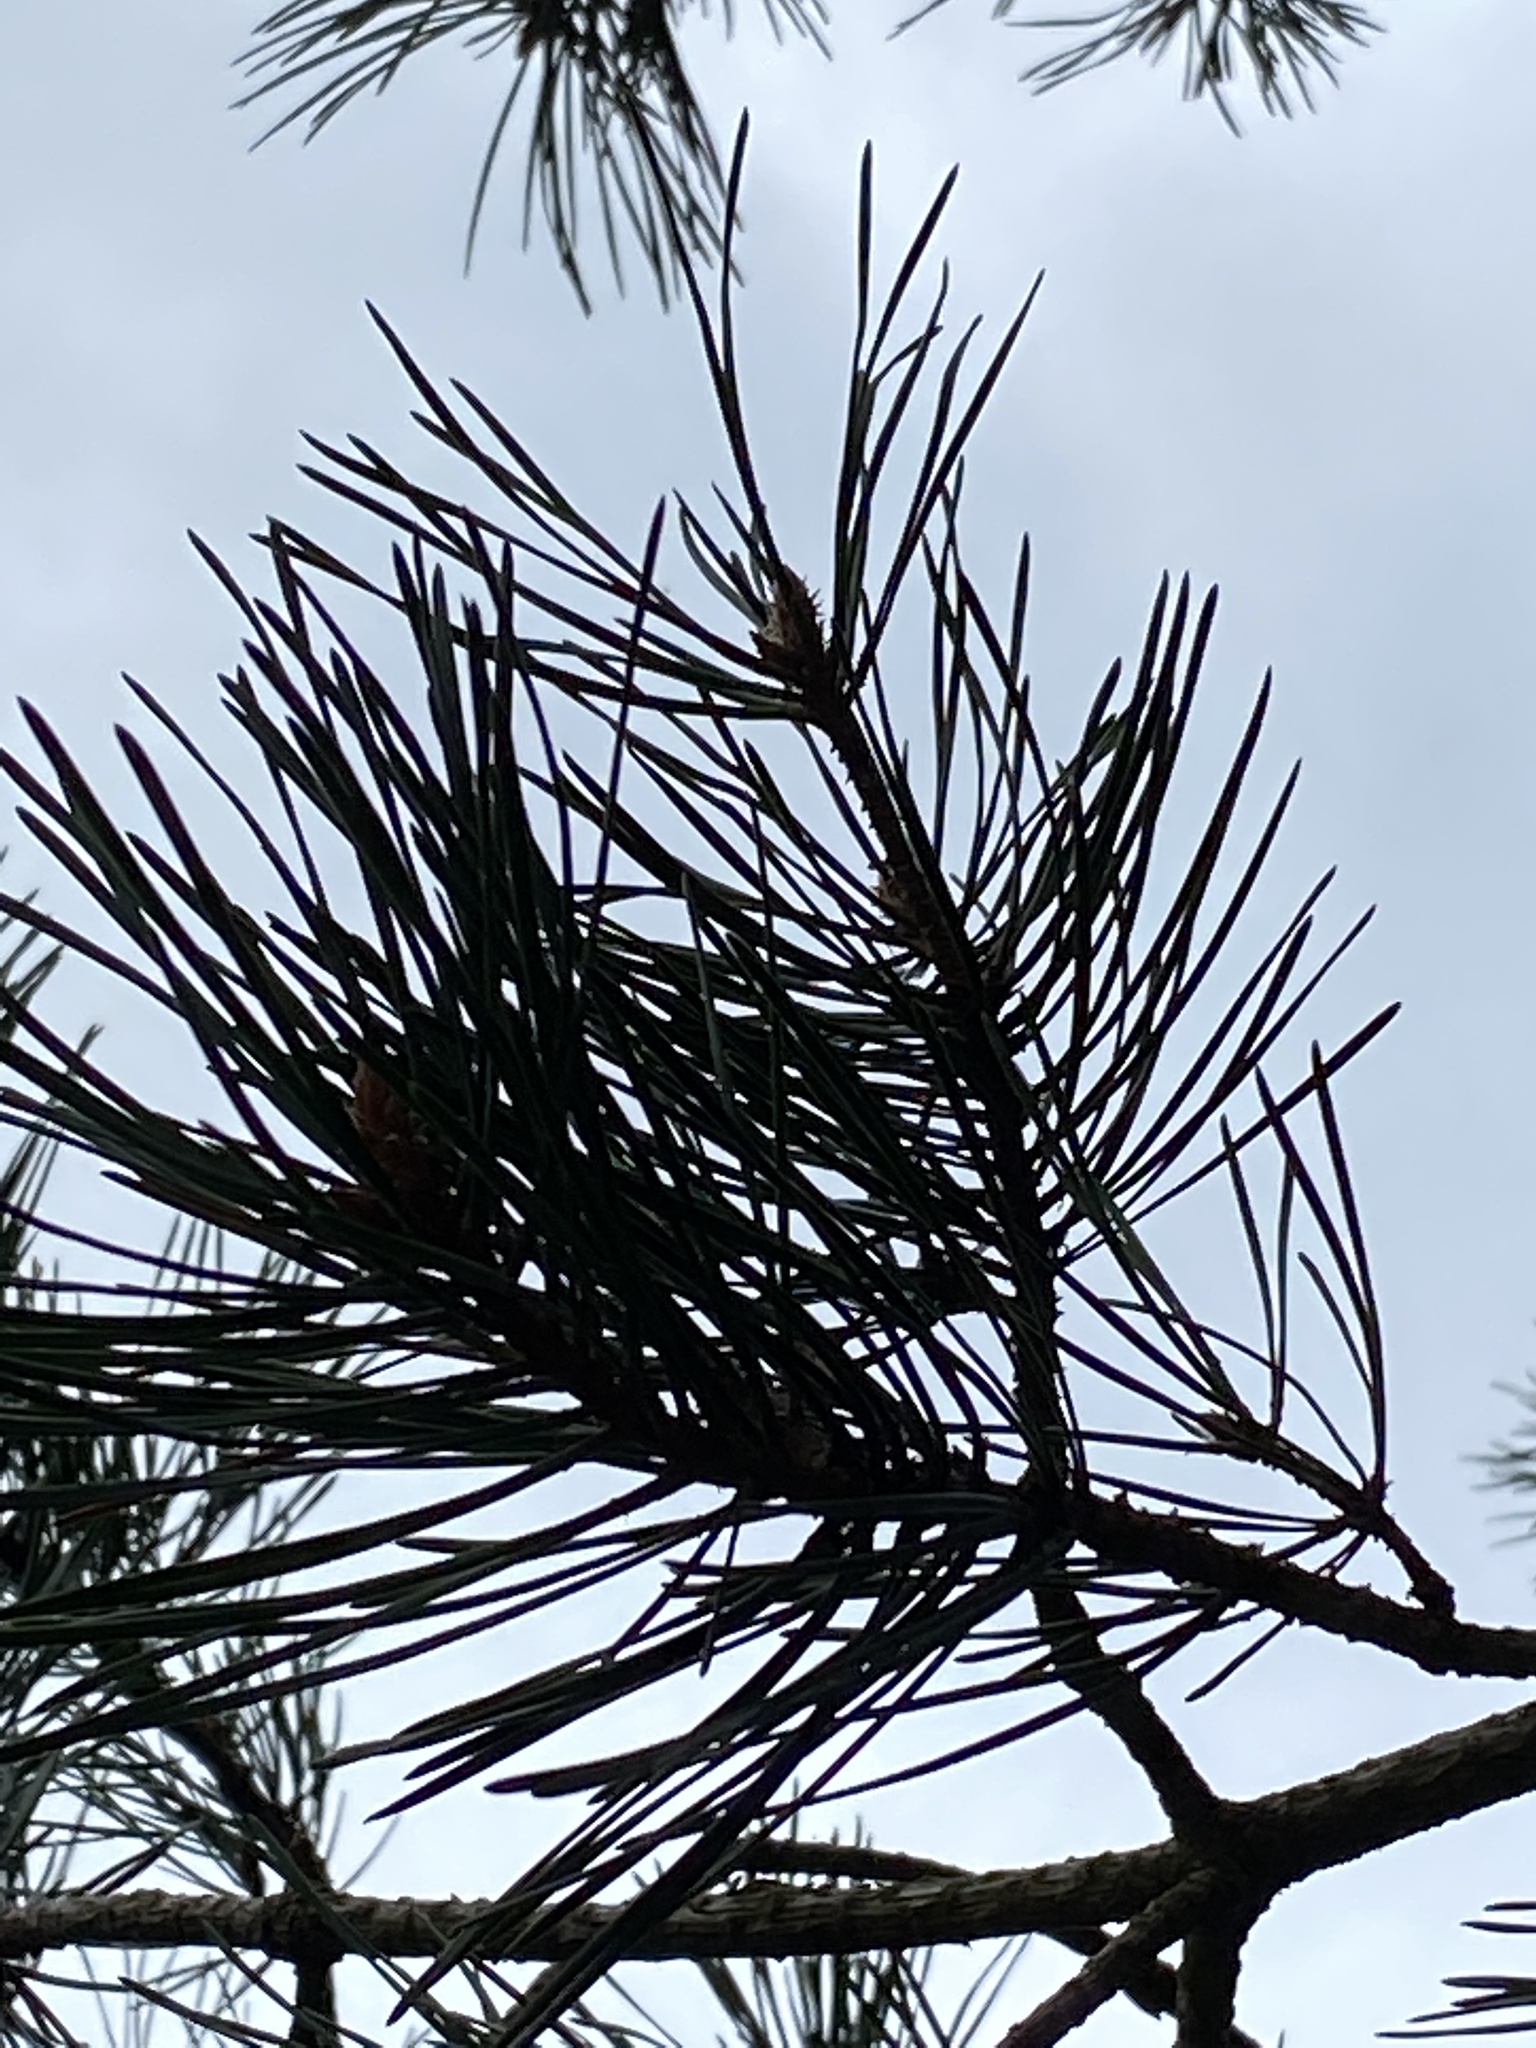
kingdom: Plantae
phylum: Tracheophyta
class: Pinopsida
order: Pinales
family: Pinaceae
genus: Pinus
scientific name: Pinus sylvestris
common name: Scots pine
